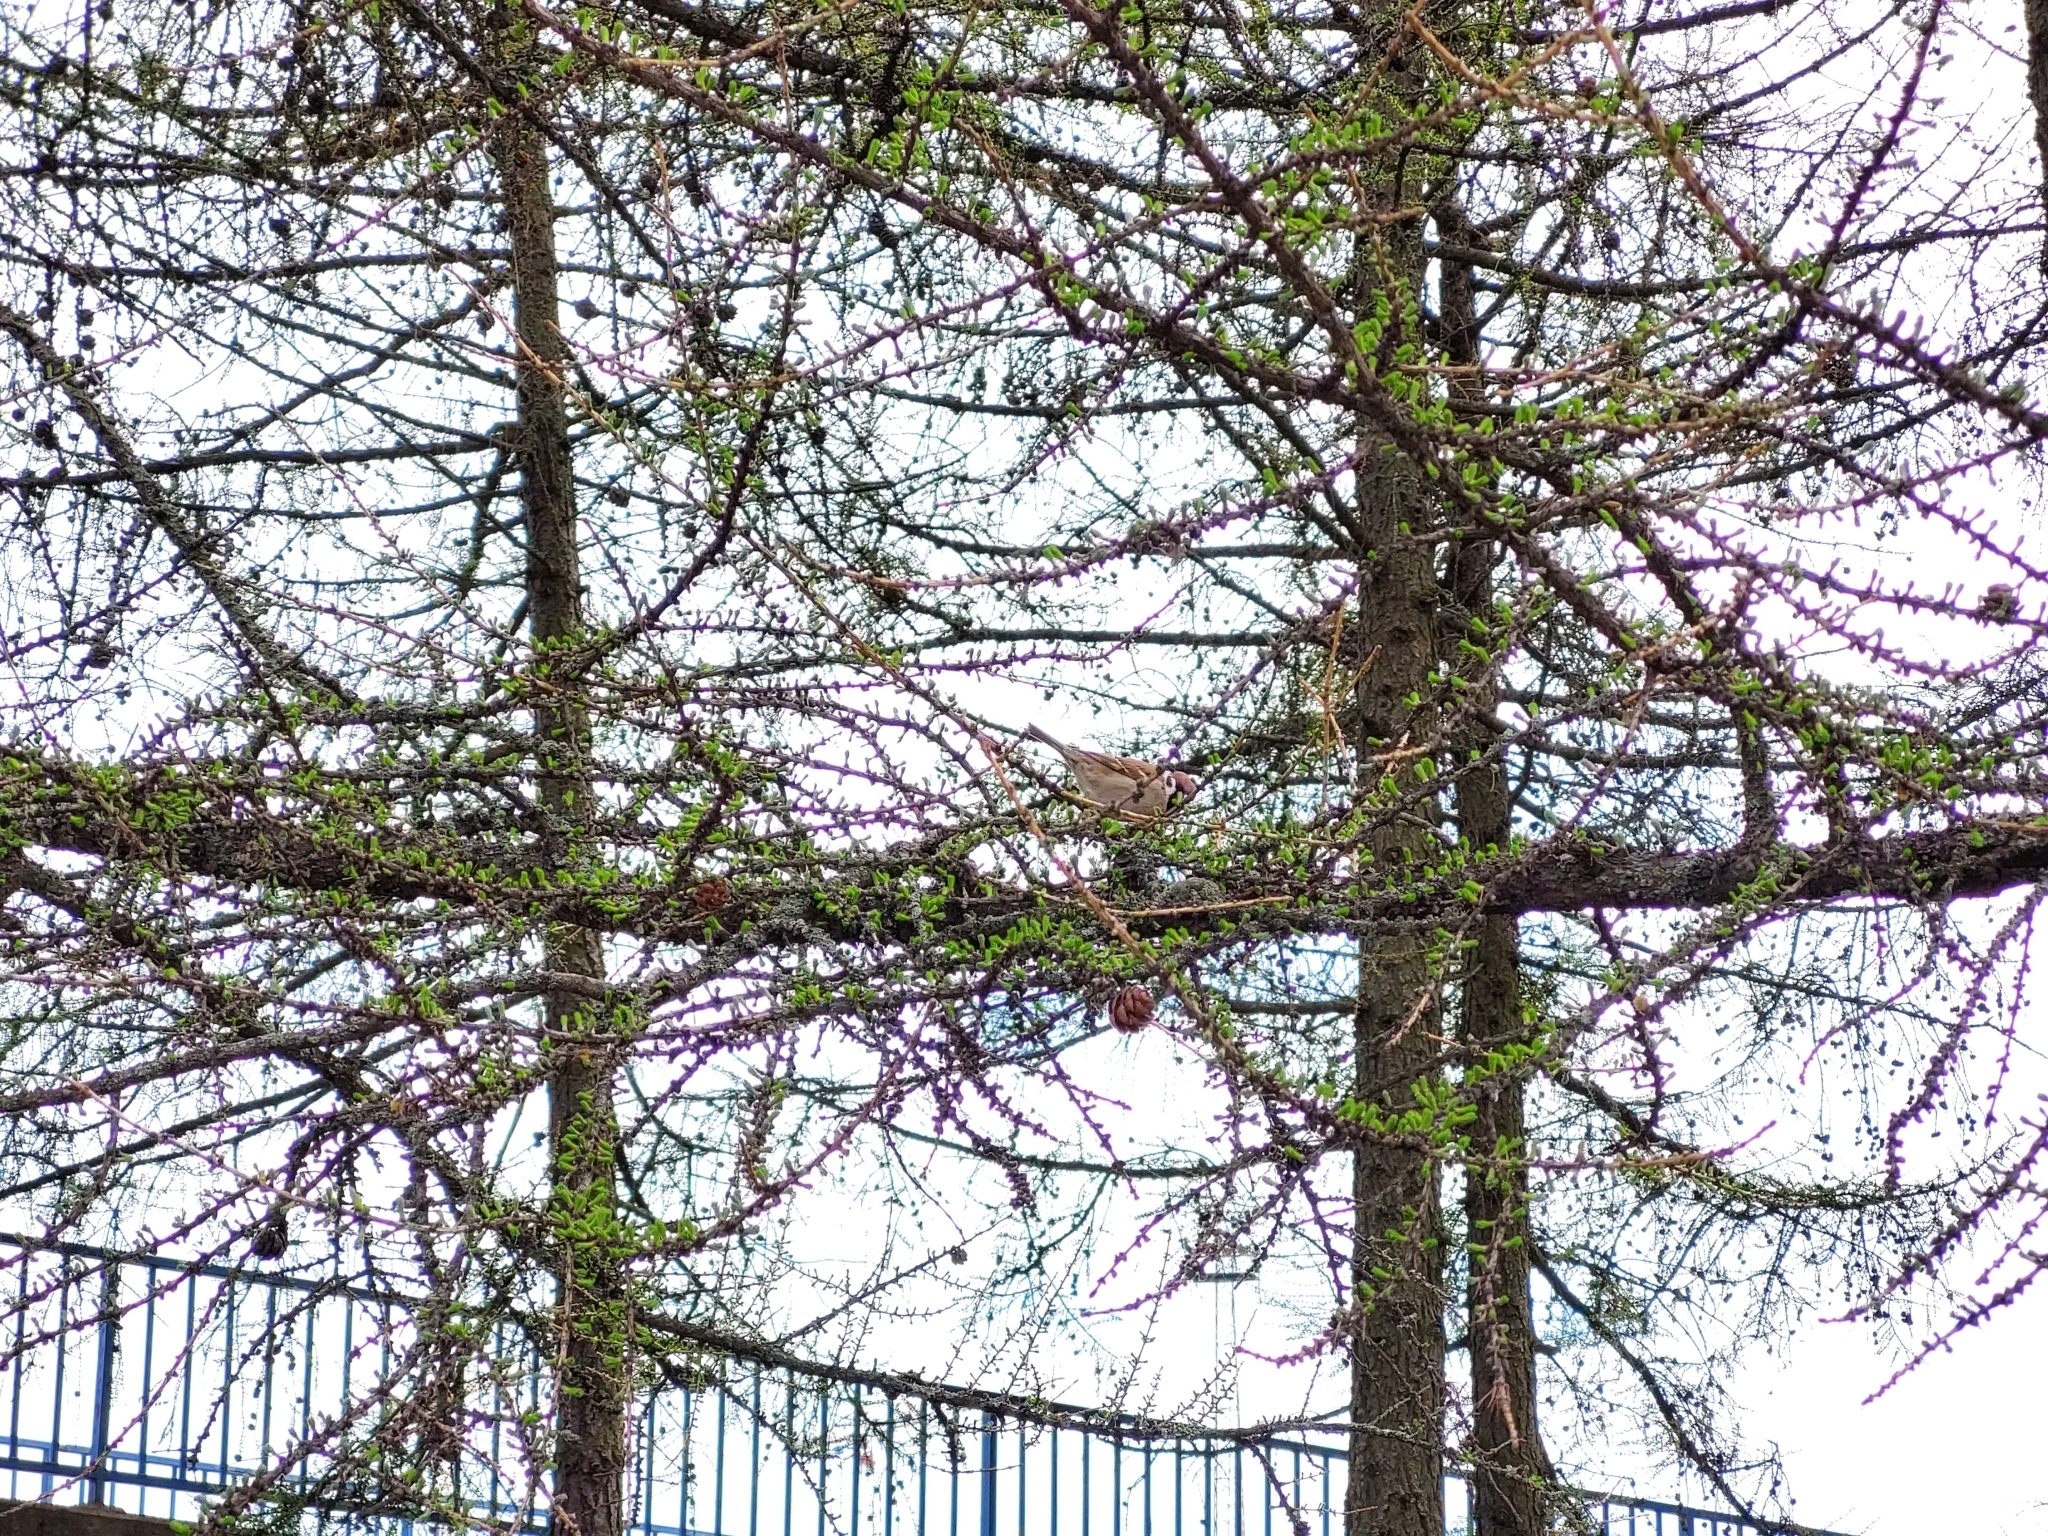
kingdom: Animalia
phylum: Chordata
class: Aves
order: Passeriformes
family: Passeridae
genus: Passer
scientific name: Passer montanus
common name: Eurasian tree sparrow
